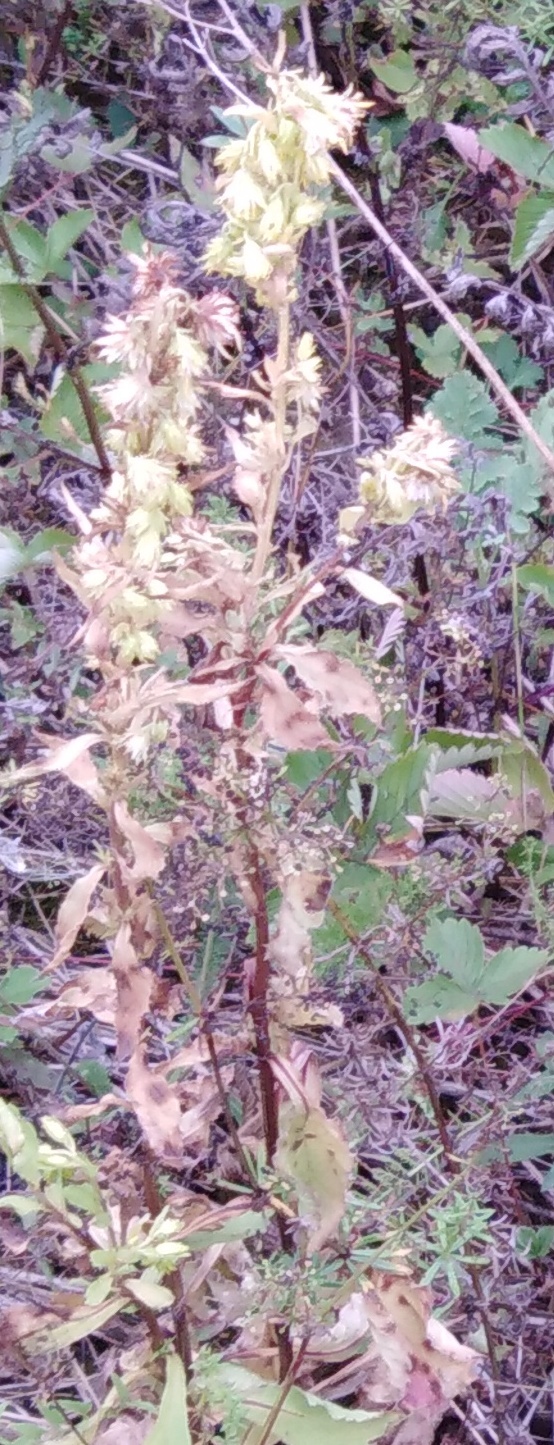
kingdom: Plantae
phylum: Tracheophyta
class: Magnoliopsida
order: Asterales
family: Asteraceae
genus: Solidago
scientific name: Solidago virgaurea
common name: Goldenrod
